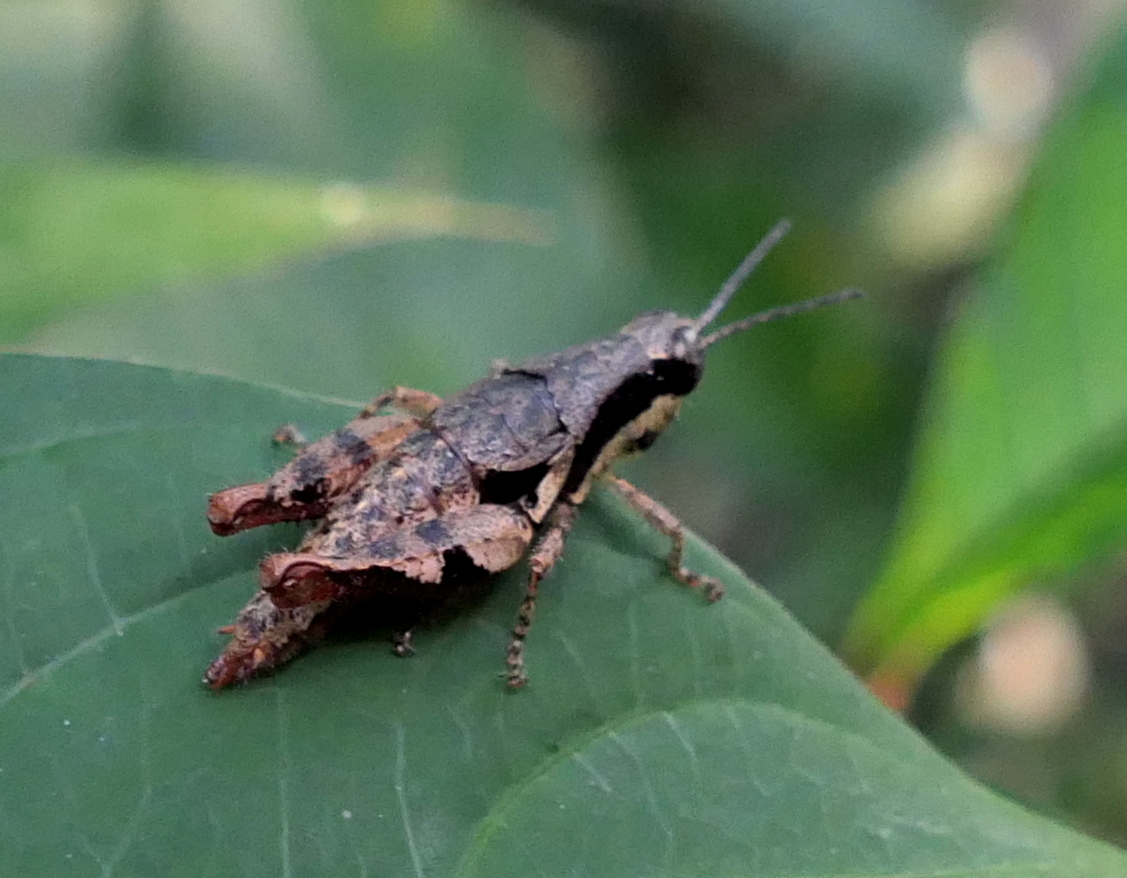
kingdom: Animalia
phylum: Arthropoda
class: Insecta
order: Orthoptera
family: Acrididae
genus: Eujivarus
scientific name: Eujivarus meridionalis
